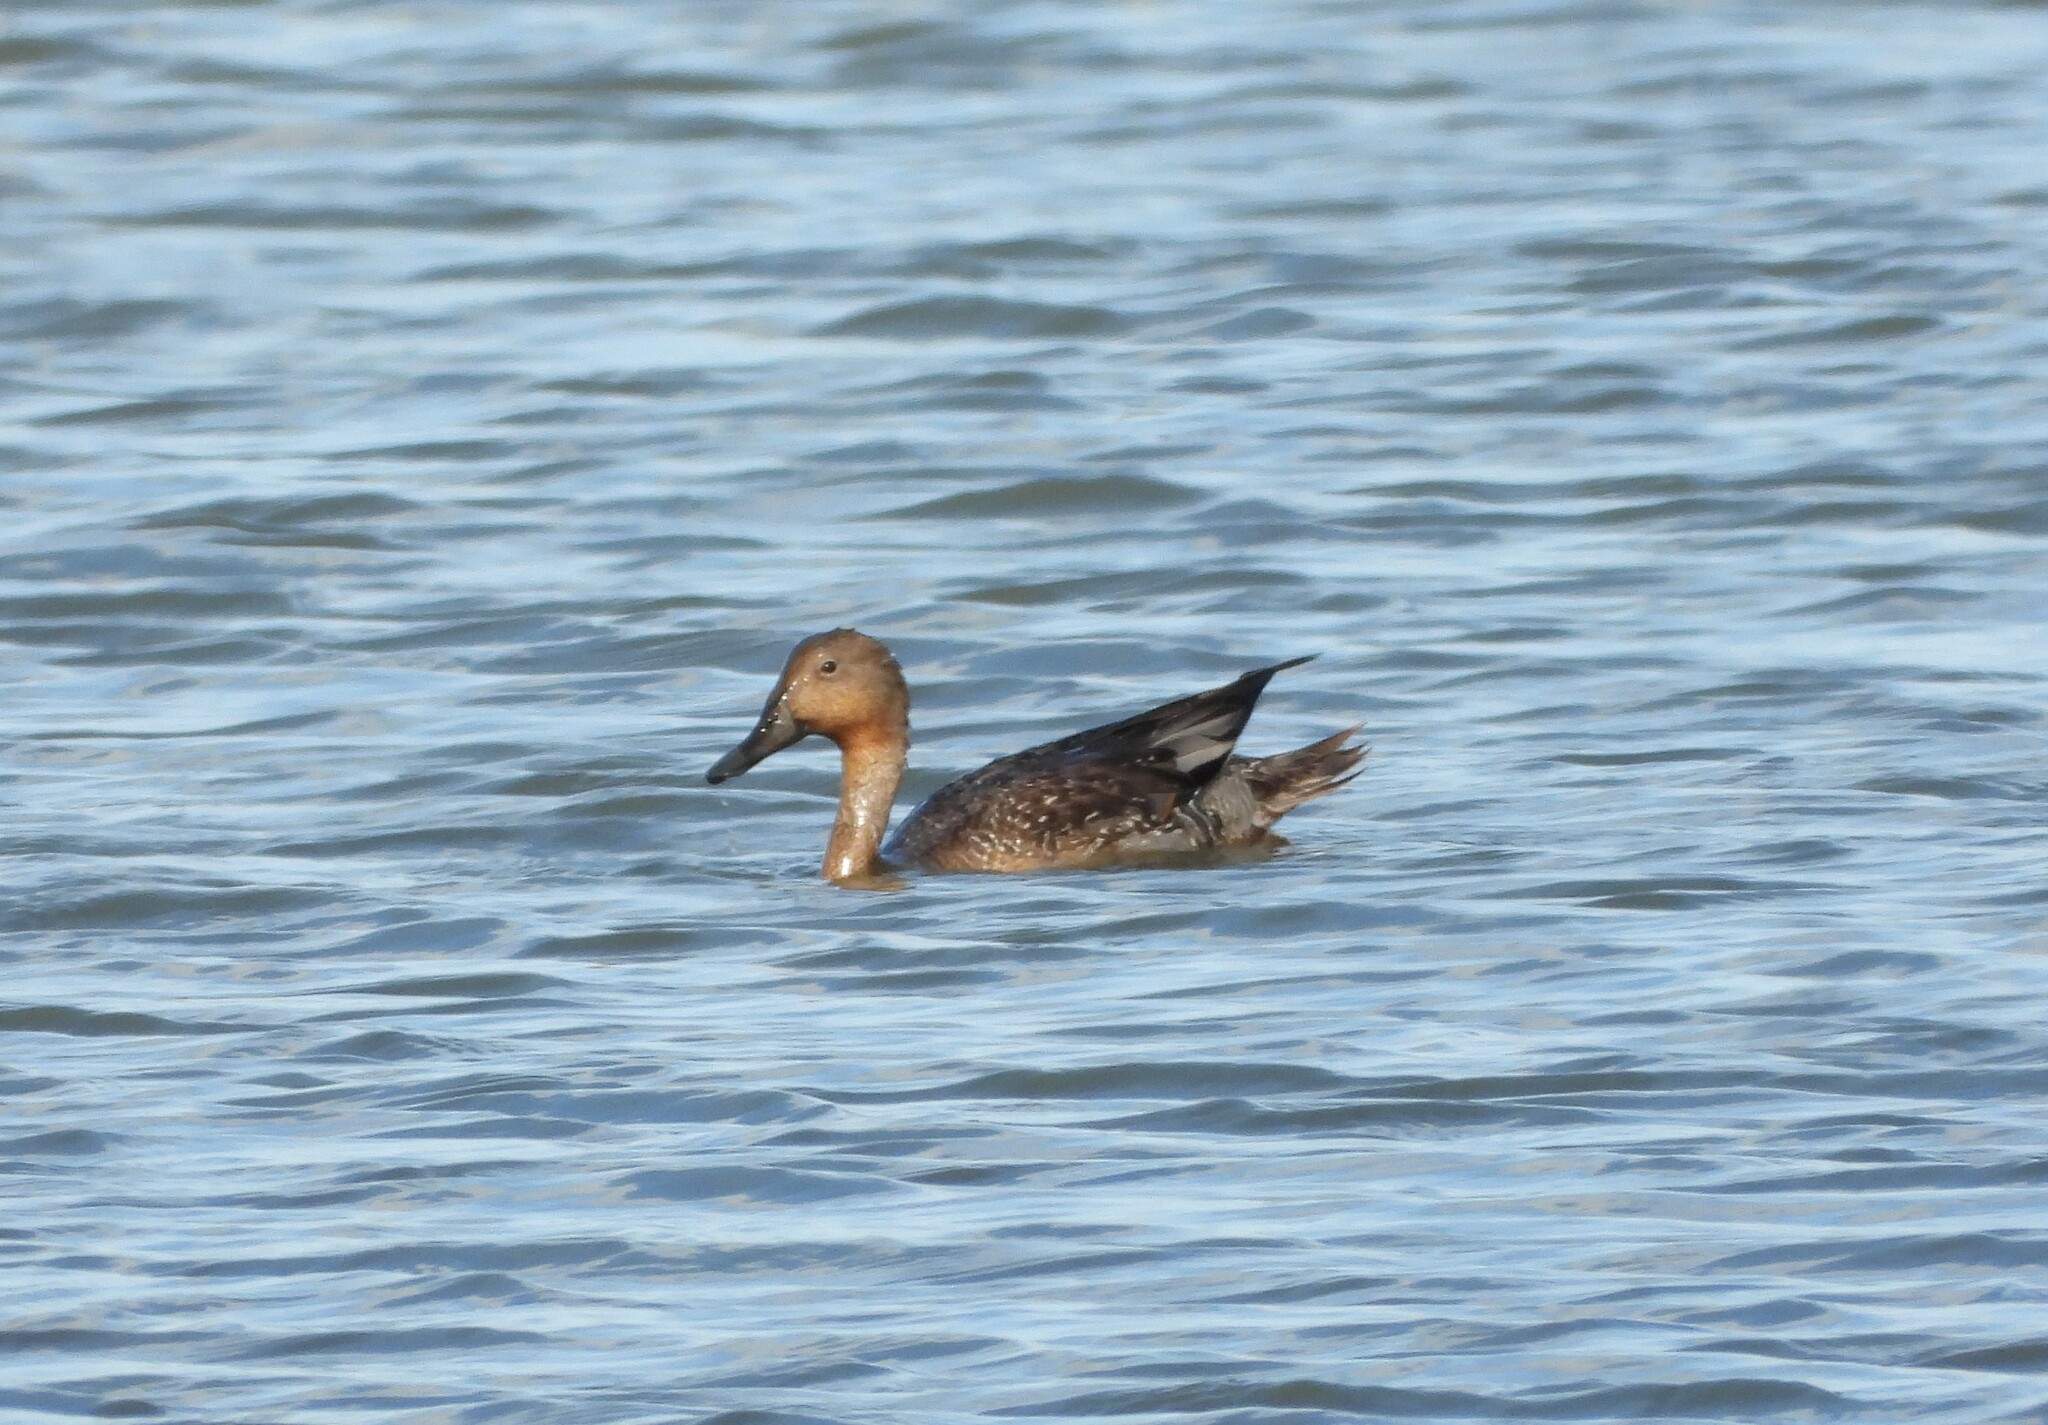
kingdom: Animalia
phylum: Chordata
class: Aves
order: Anseriformes
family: Anatidae
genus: Anas
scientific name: Anas acuta
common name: Northern pintail
